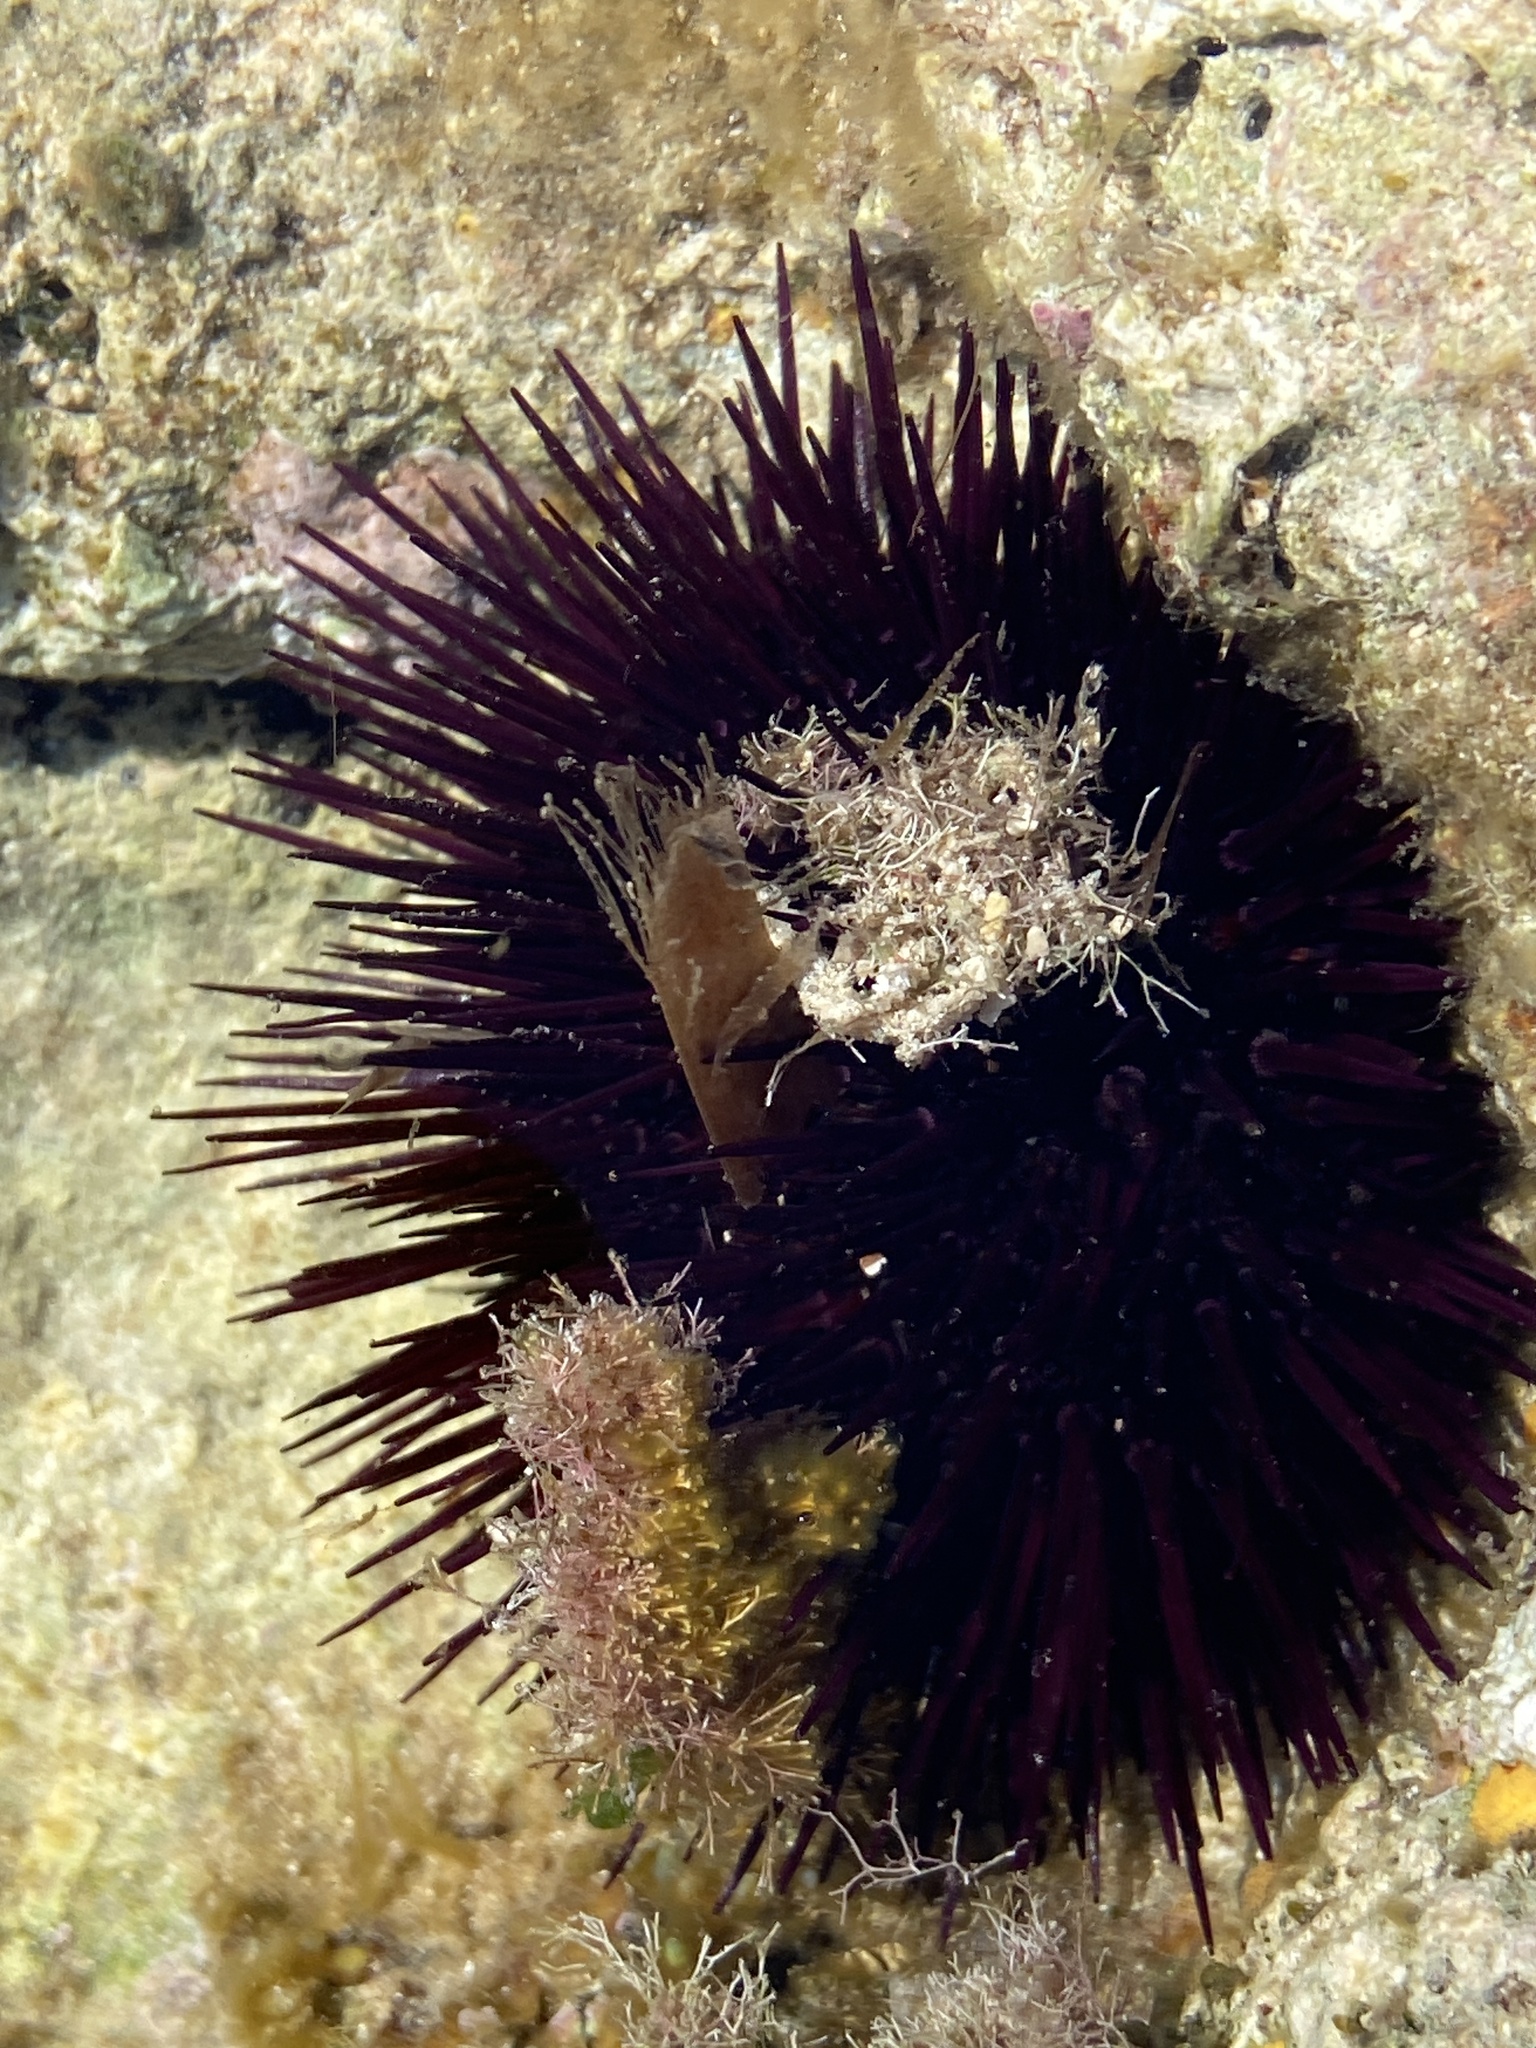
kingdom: Animalia
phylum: Echinodermata
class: Echinoidea
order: Camarodonta
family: Parechinidae
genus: Paracentrotus
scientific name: Paracentrotus lividus
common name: Purple sea urchin
